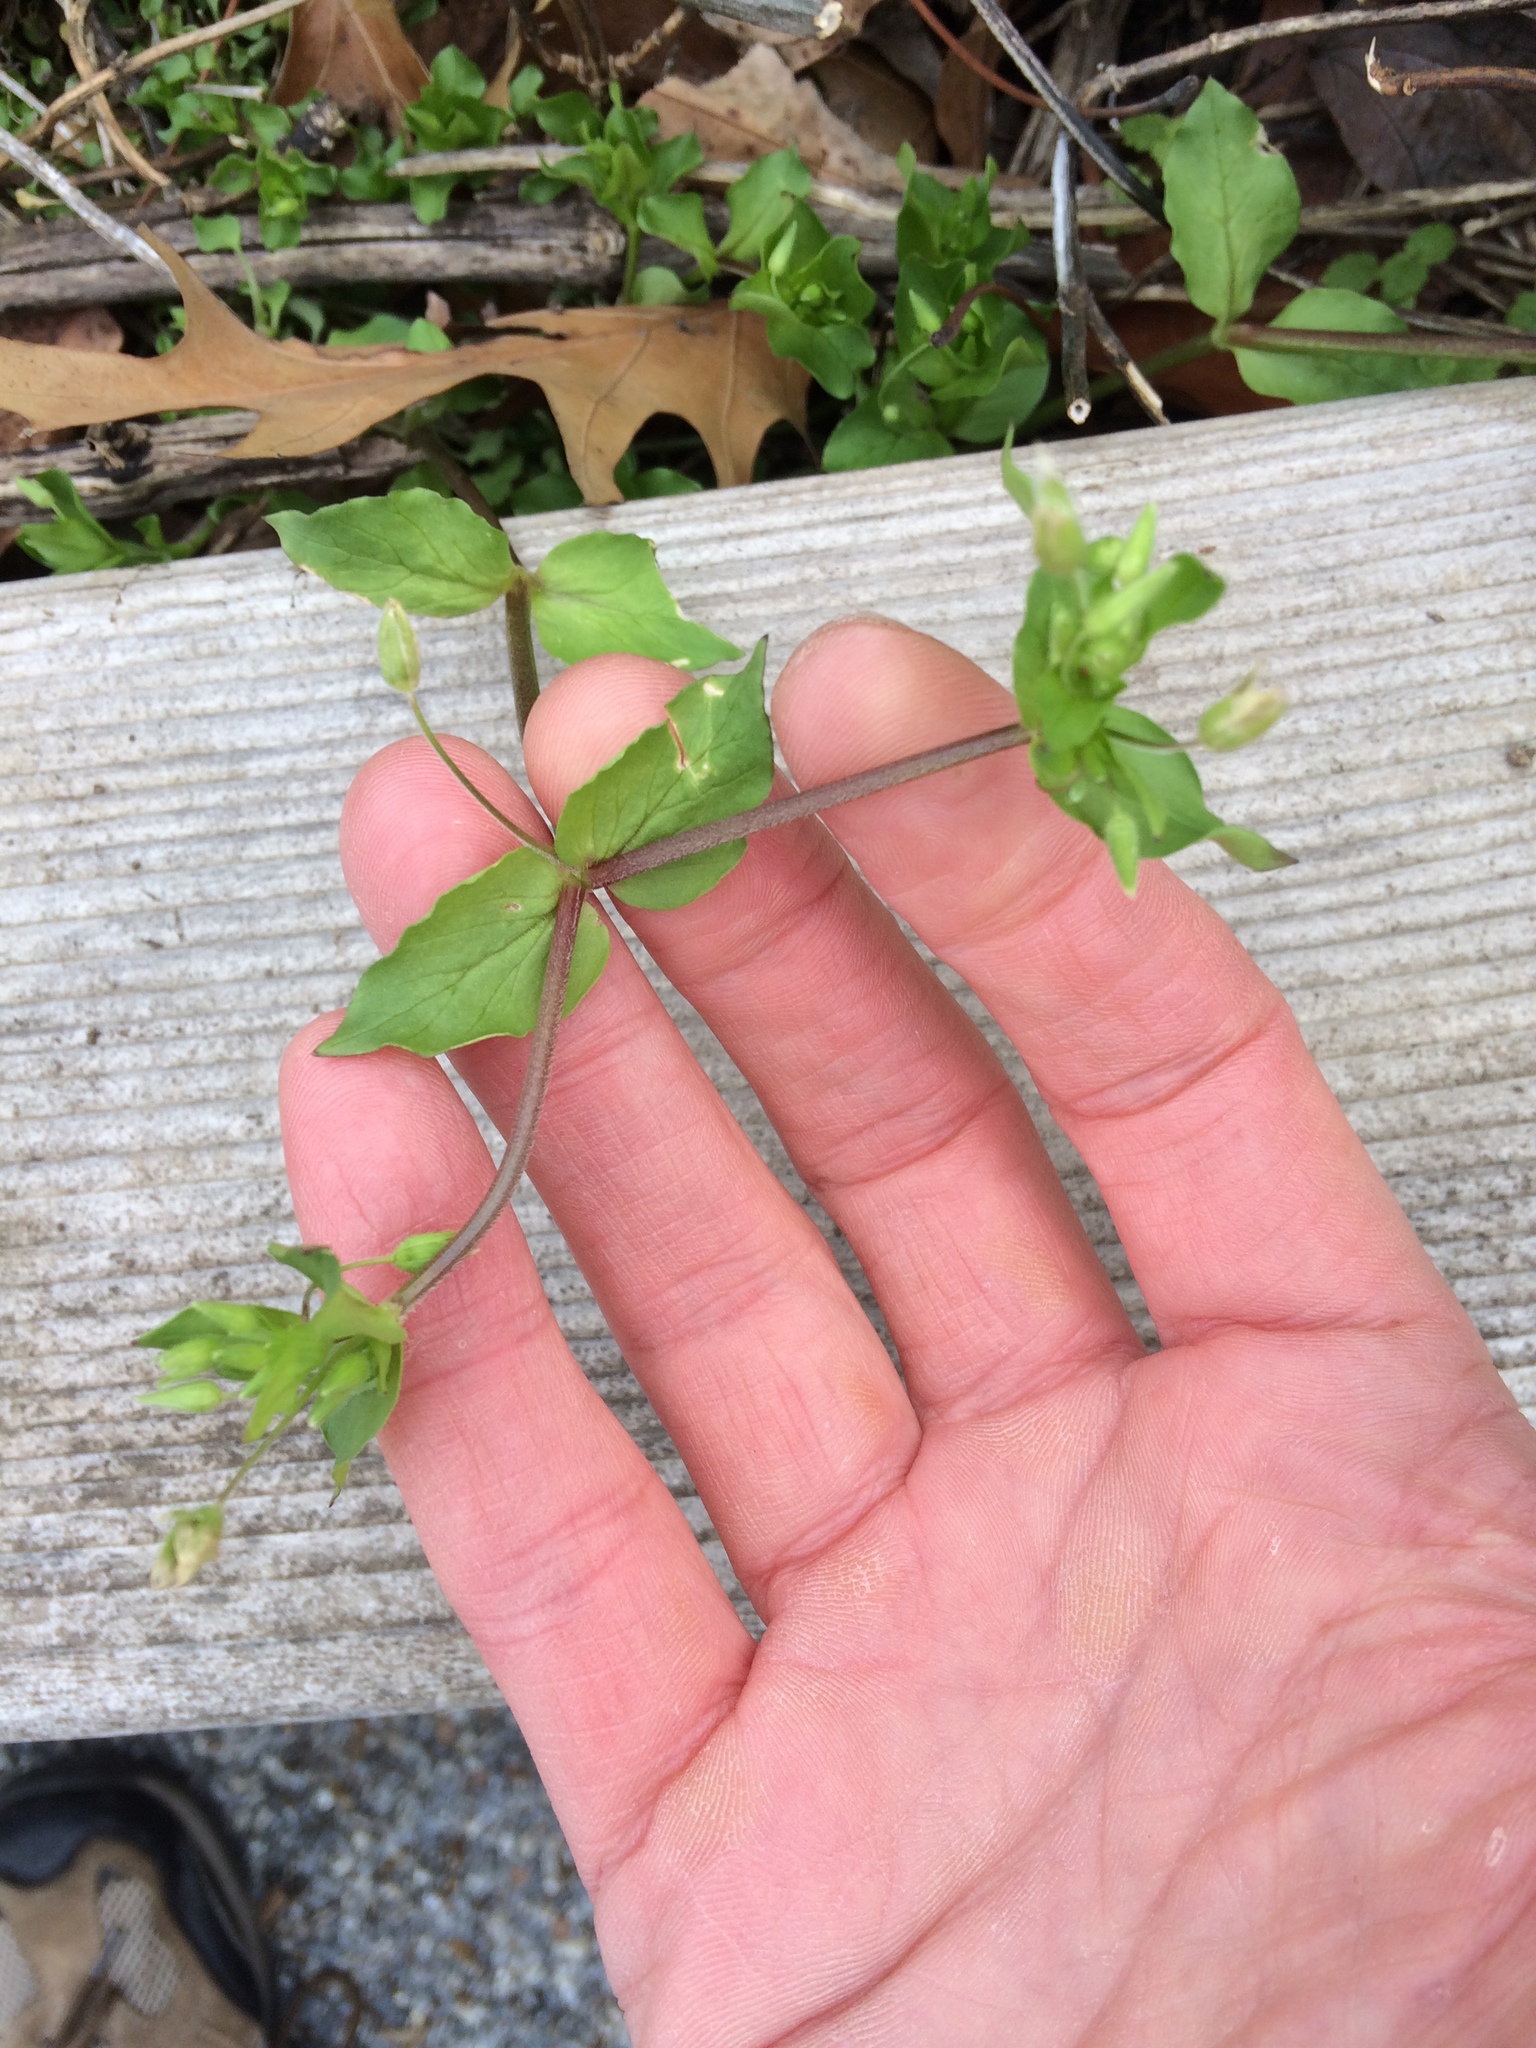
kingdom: Plantae
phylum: Tracheophyta
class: Magnoliopsida
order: Caryophyllales
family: Caryophyllaceae
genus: Stellaria
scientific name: Stellaria media
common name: Common chickweed
